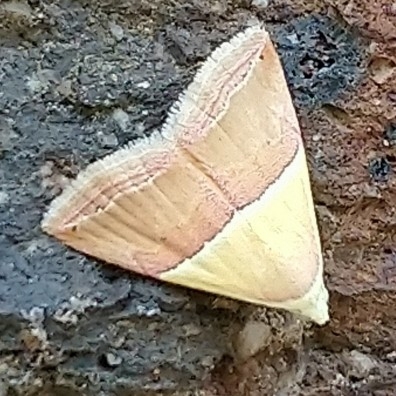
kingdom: Animalia
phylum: Arthropoda
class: Insecta
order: Lepidoptera
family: Noctuidae
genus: Eublemma
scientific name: Eublemma caffrorum
